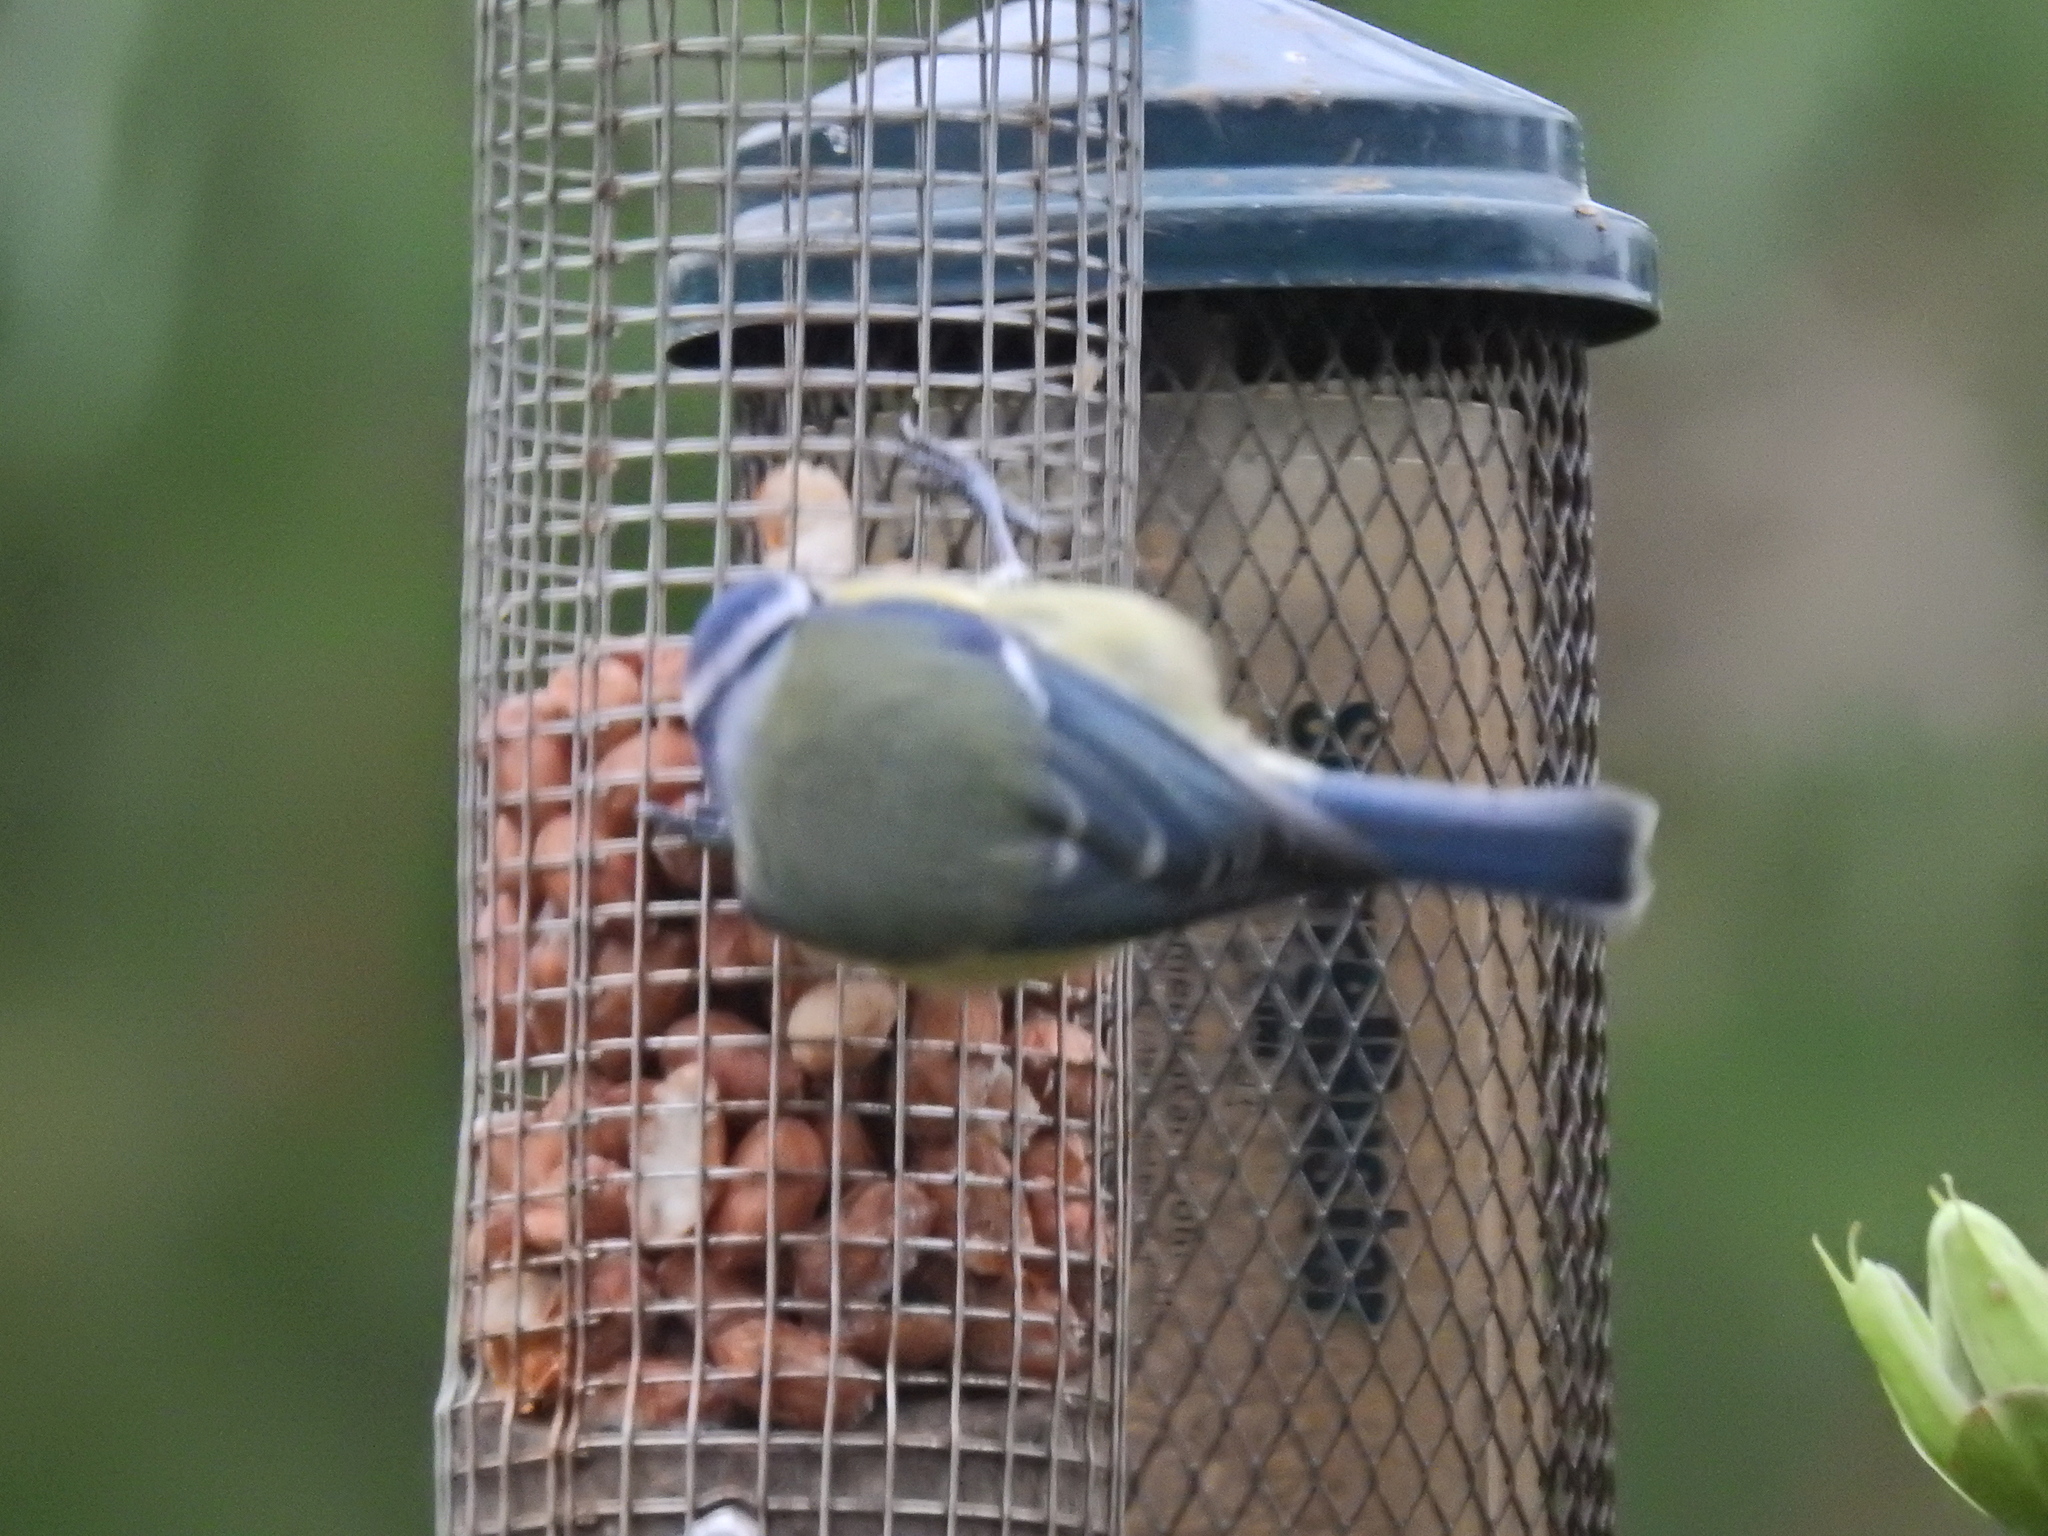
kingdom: Animalia
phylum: Chordata
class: Aves
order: Passeriformes
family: Paridae
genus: Cyanistes
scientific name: Cyanistes caeruleus
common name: Eurasian blue tit
